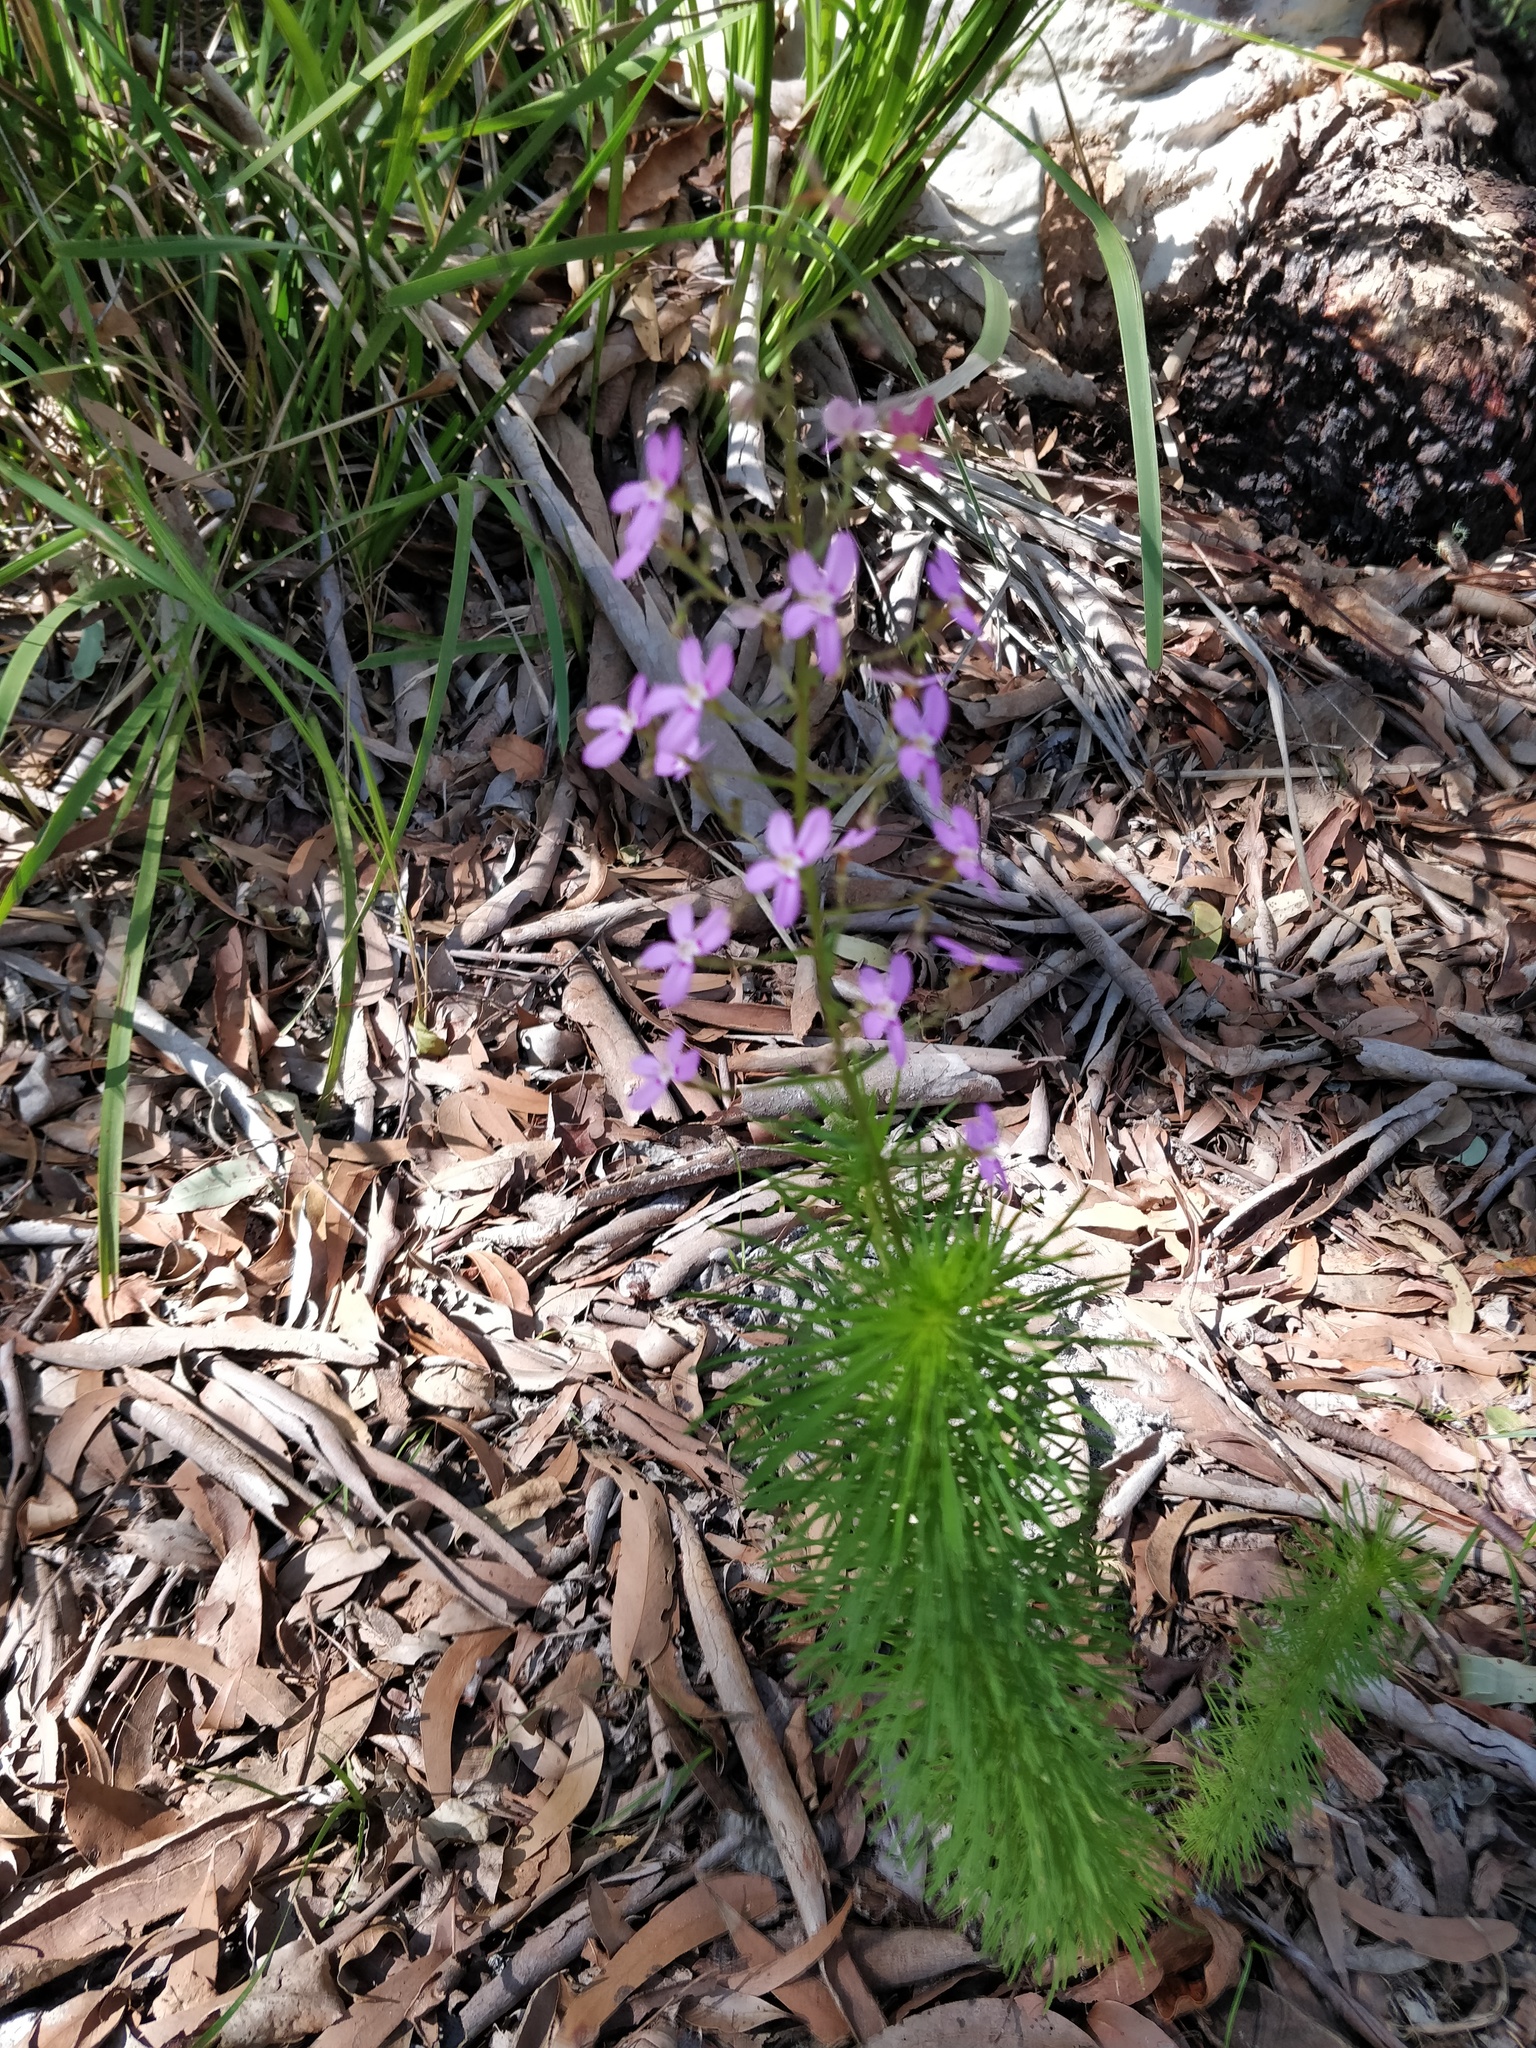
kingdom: Plantae
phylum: Tracheophyta
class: Magnoliopsida
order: Asterales
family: Stylidiaceae
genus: Stylidium
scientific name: Stylidium laricifolium
